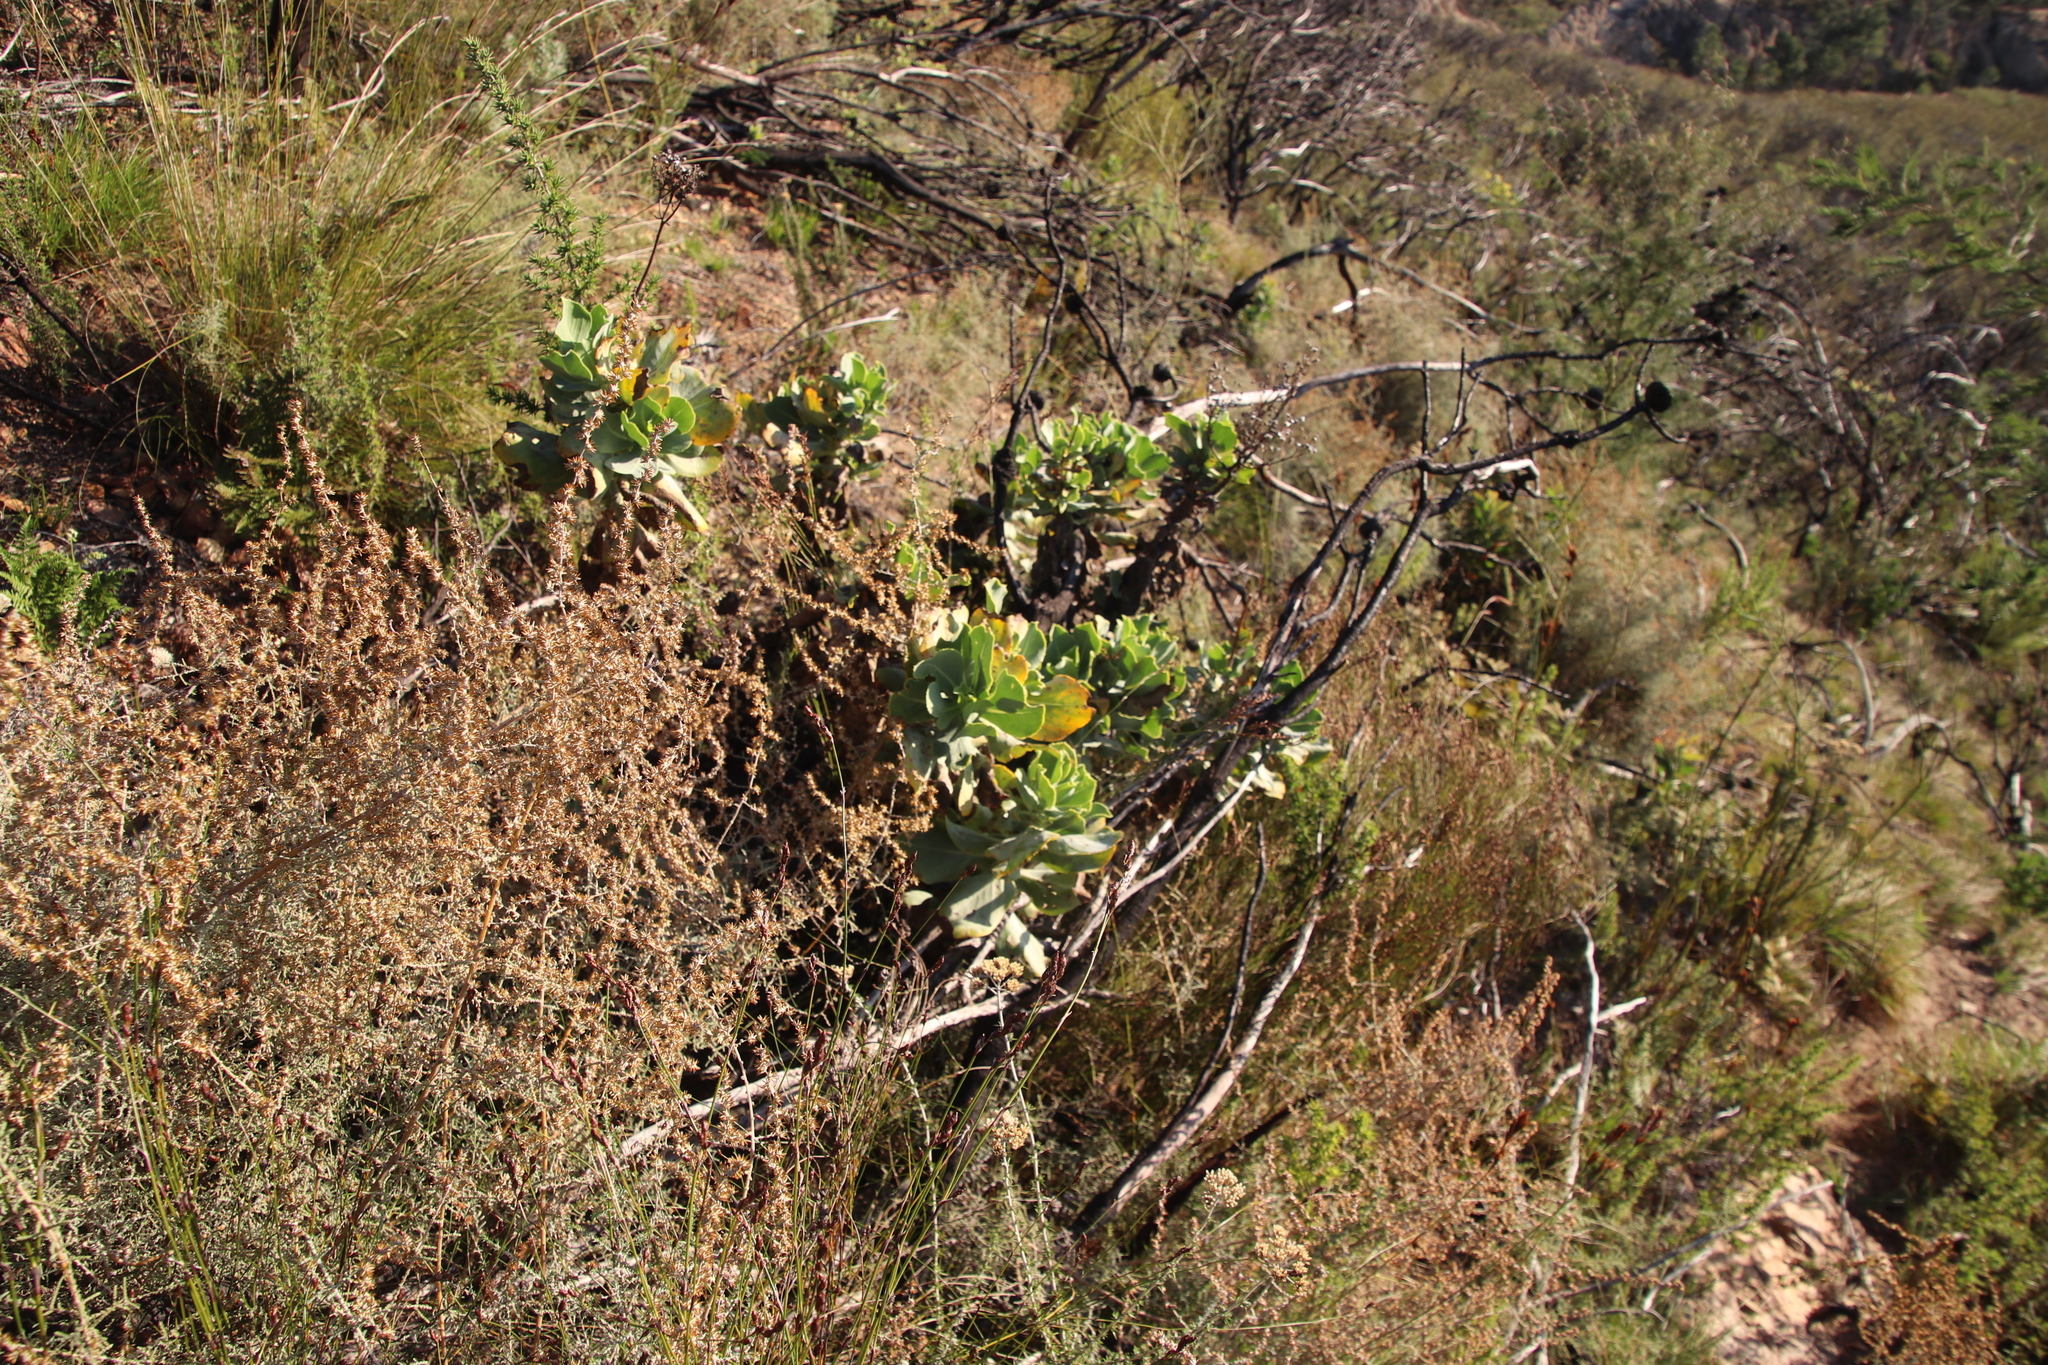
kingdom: Plantae
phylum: Tracheophyta
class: Magnoliopsida
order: Asterales
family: Asteraceae
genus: Othonna
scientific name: Othonna parviflora
